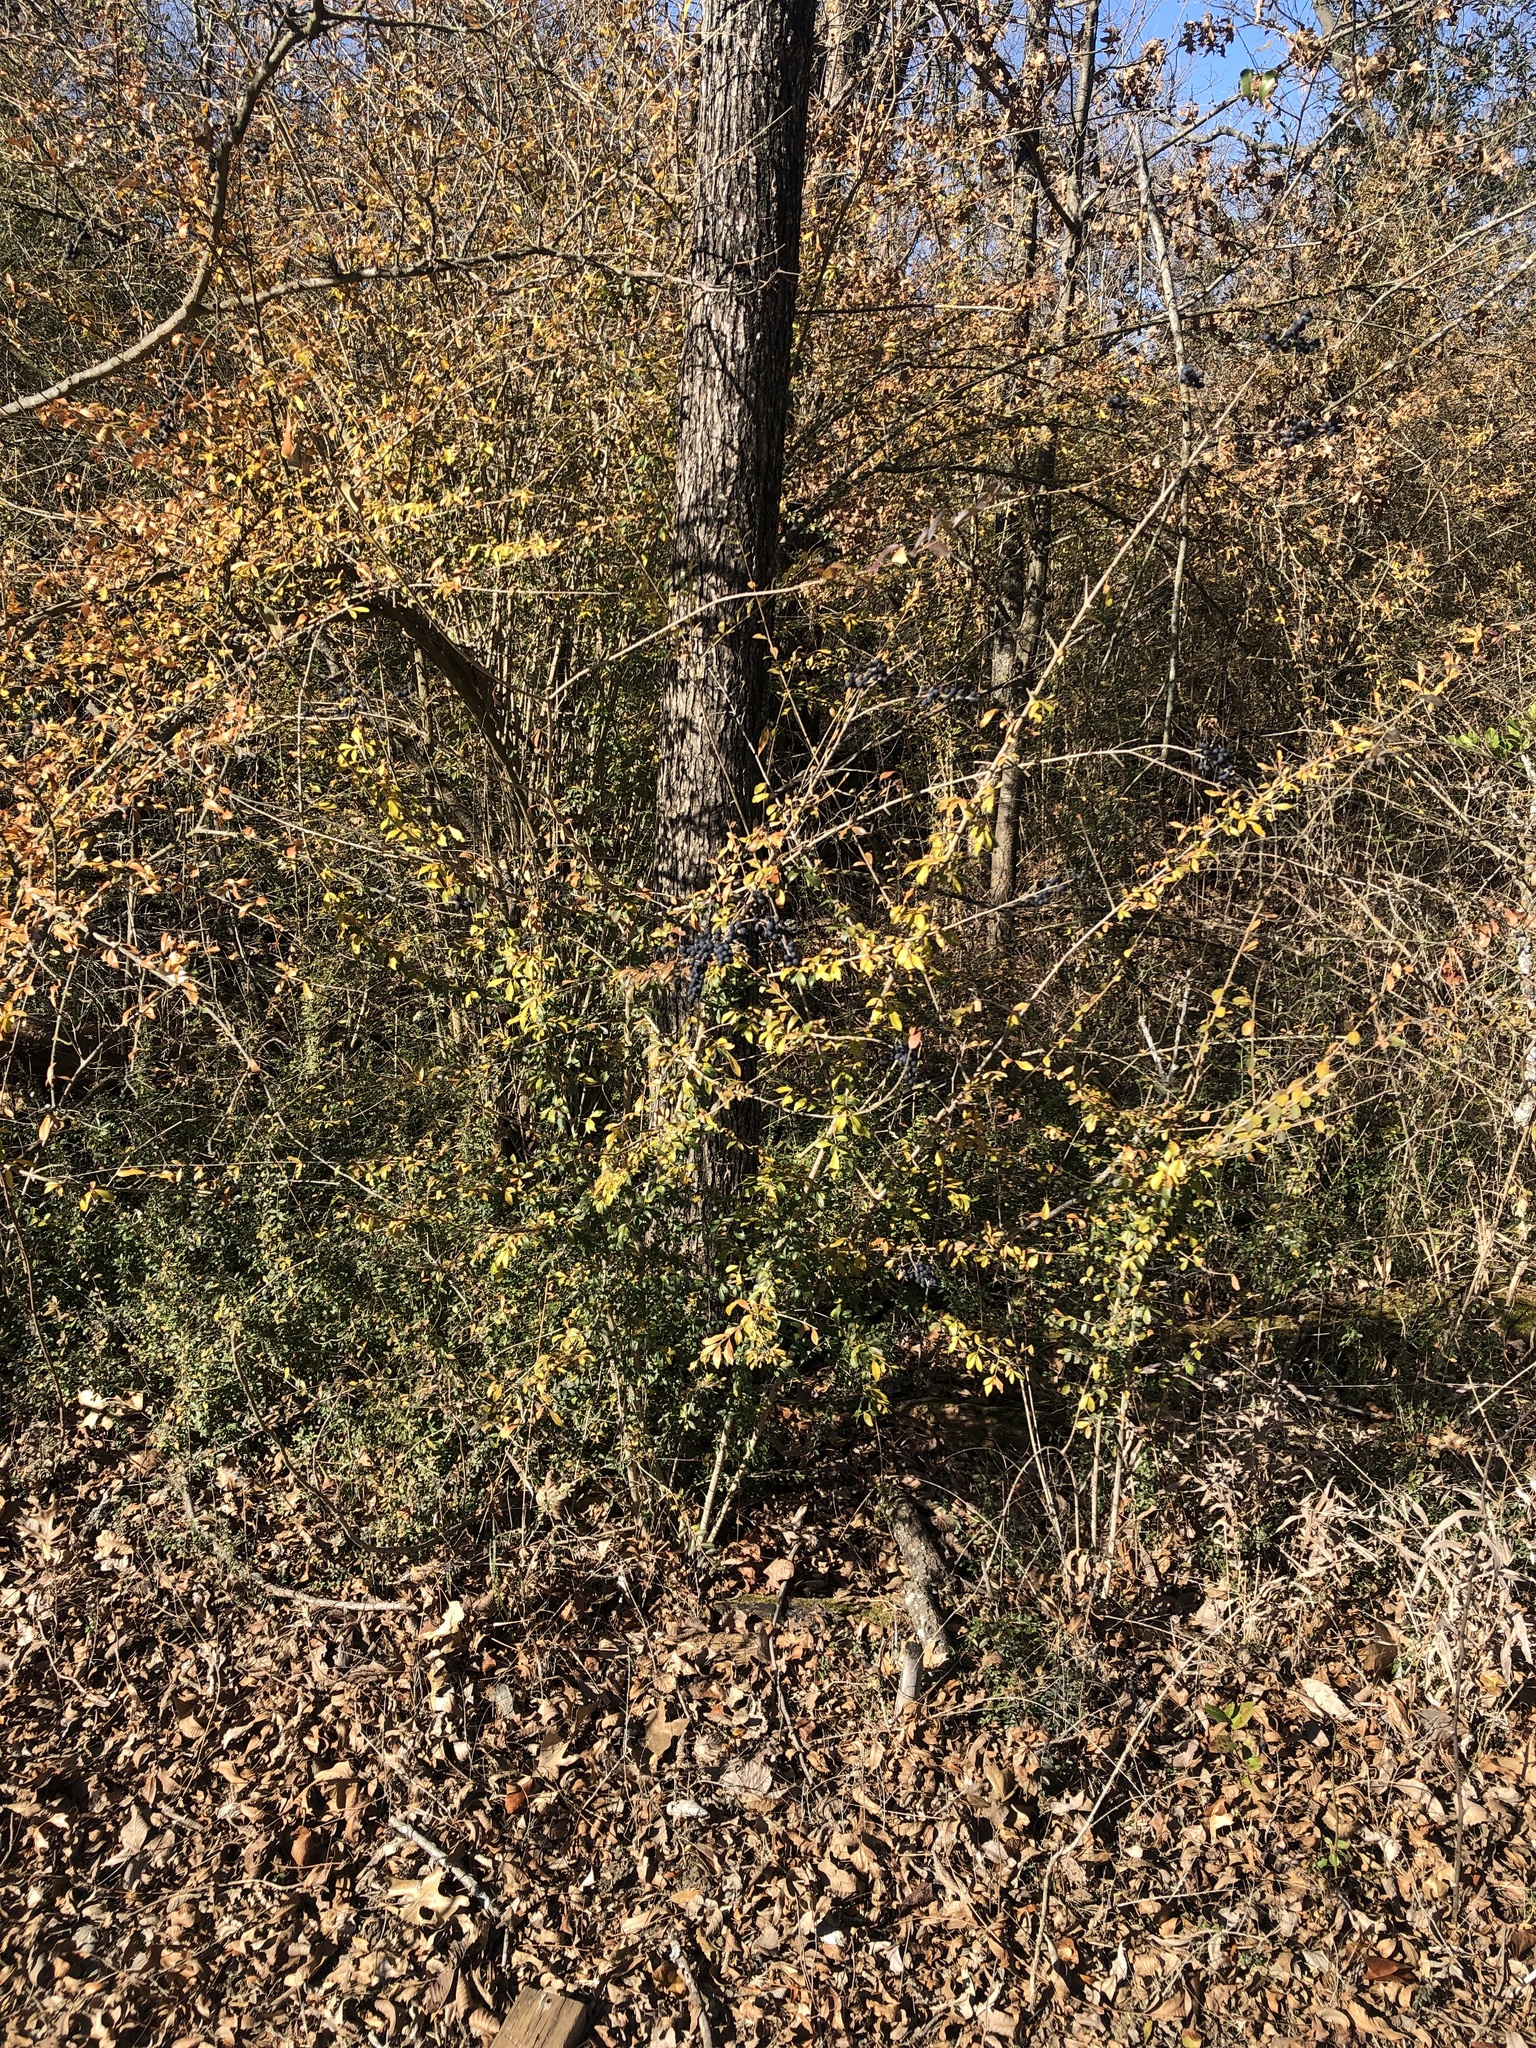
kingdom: Plantae
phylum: Tracheophyta
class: Magnoliopsida
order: Lamiales
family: Oleaceae
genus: Ligustrum
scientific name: Ligustrum quihoui
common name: Waxyleaf privet
